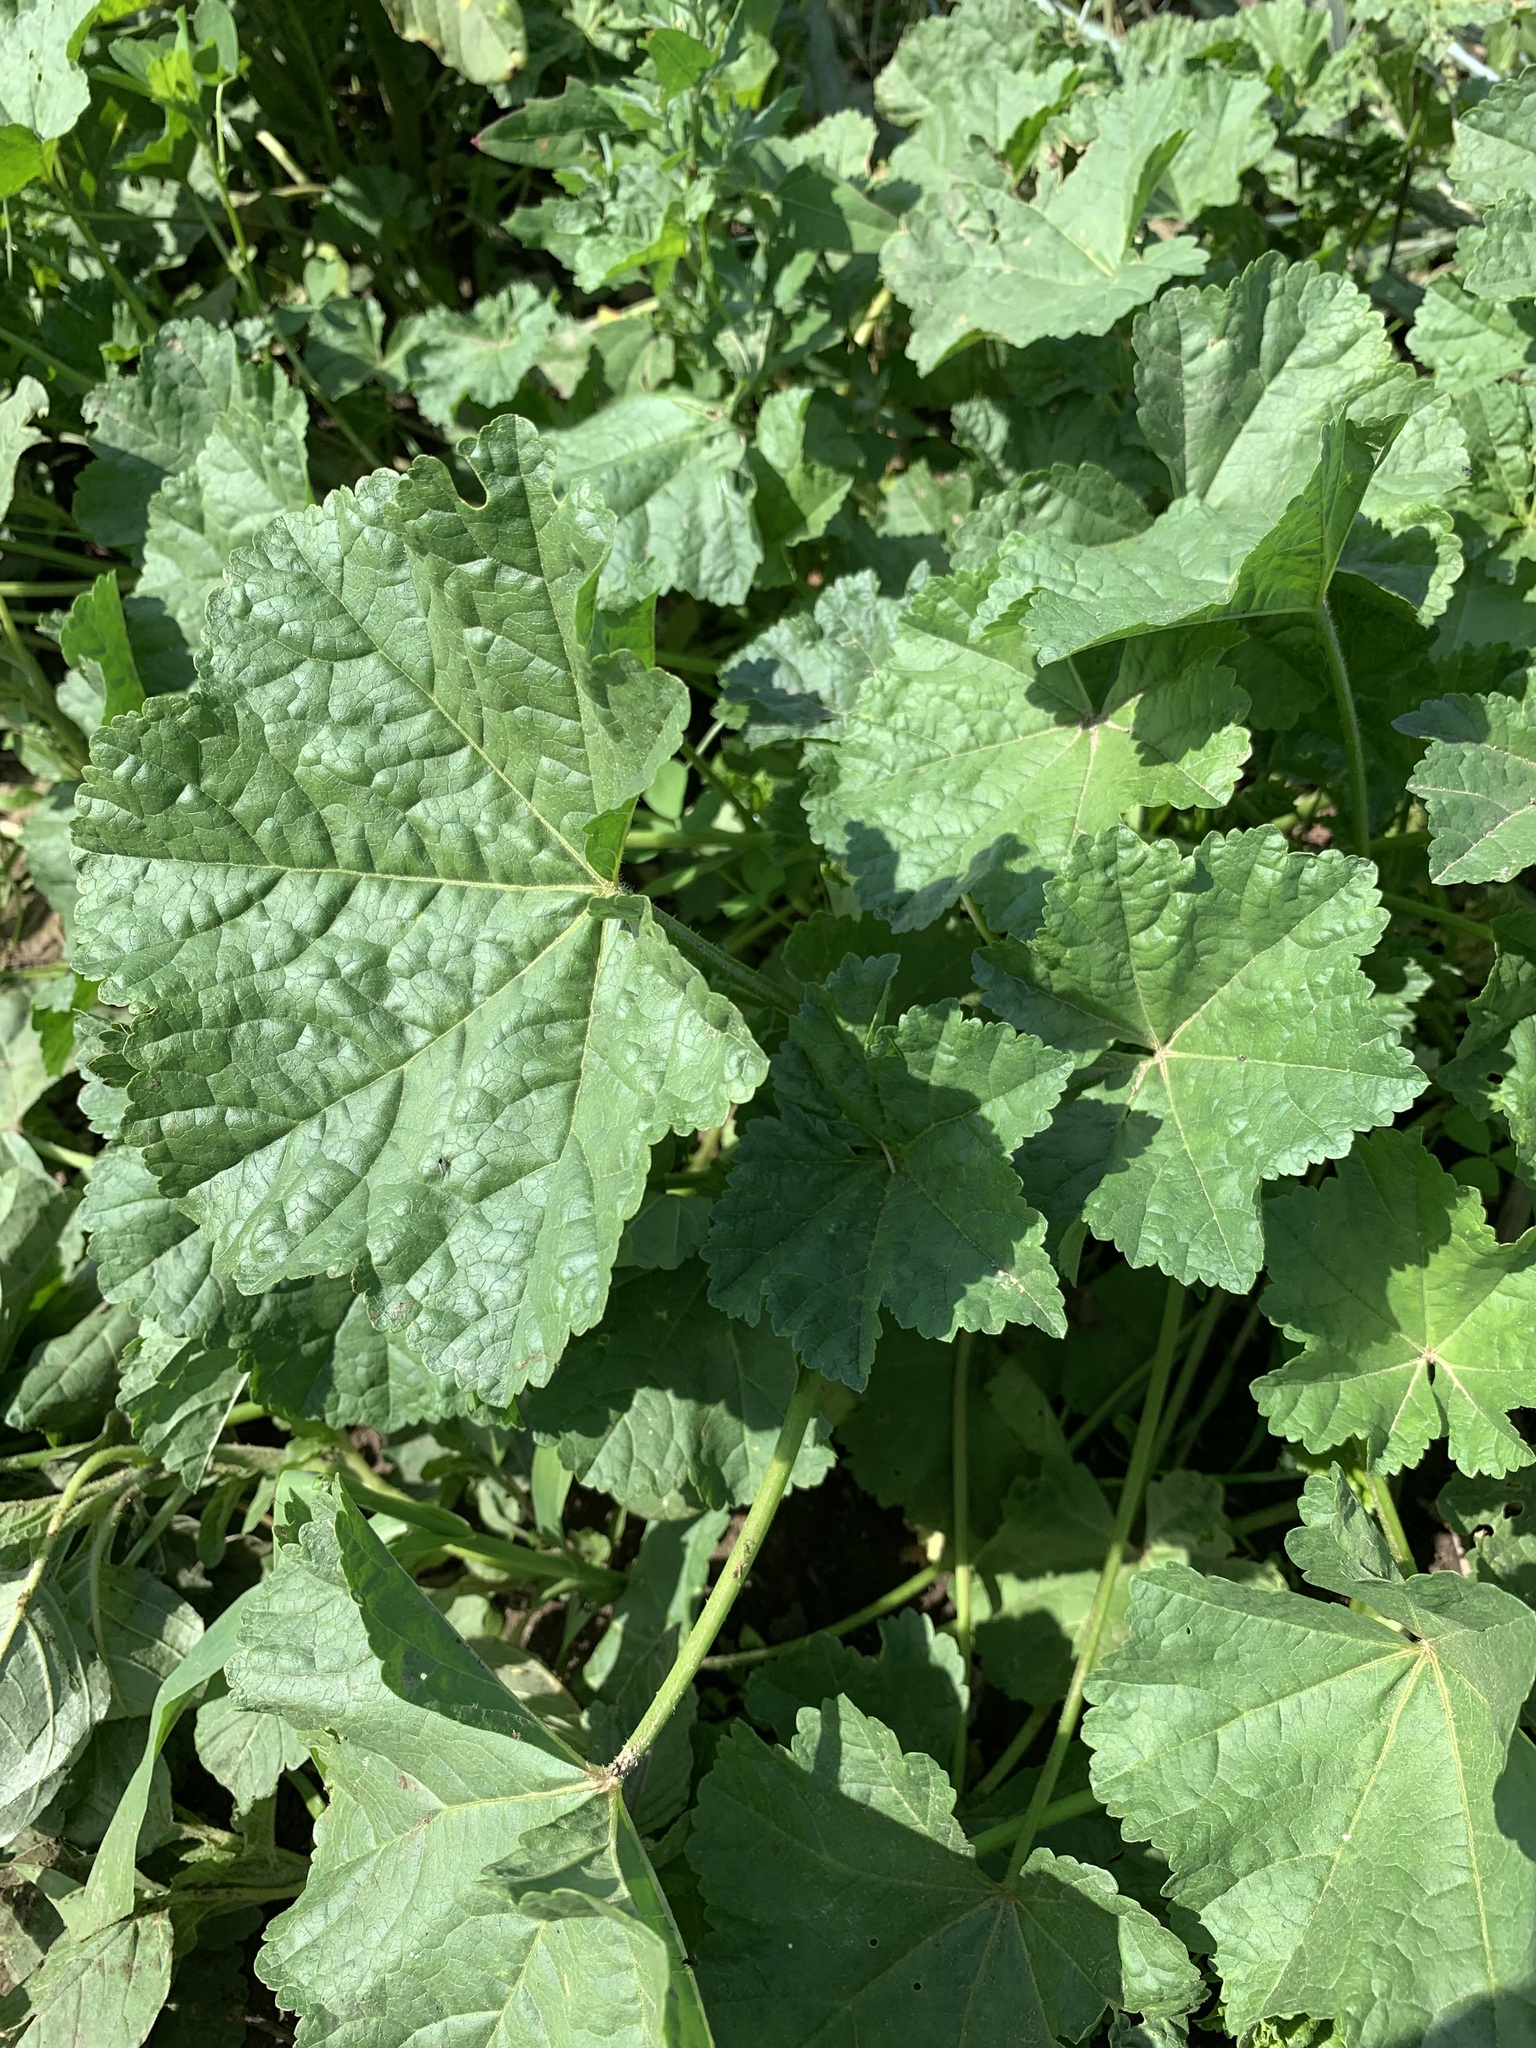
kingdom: Plantae
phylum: Tracheophyta
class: Magnoliopsida
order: Malvales
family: Malvaceae
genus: Malva
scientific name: Malva pusilla
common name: Small mallow
